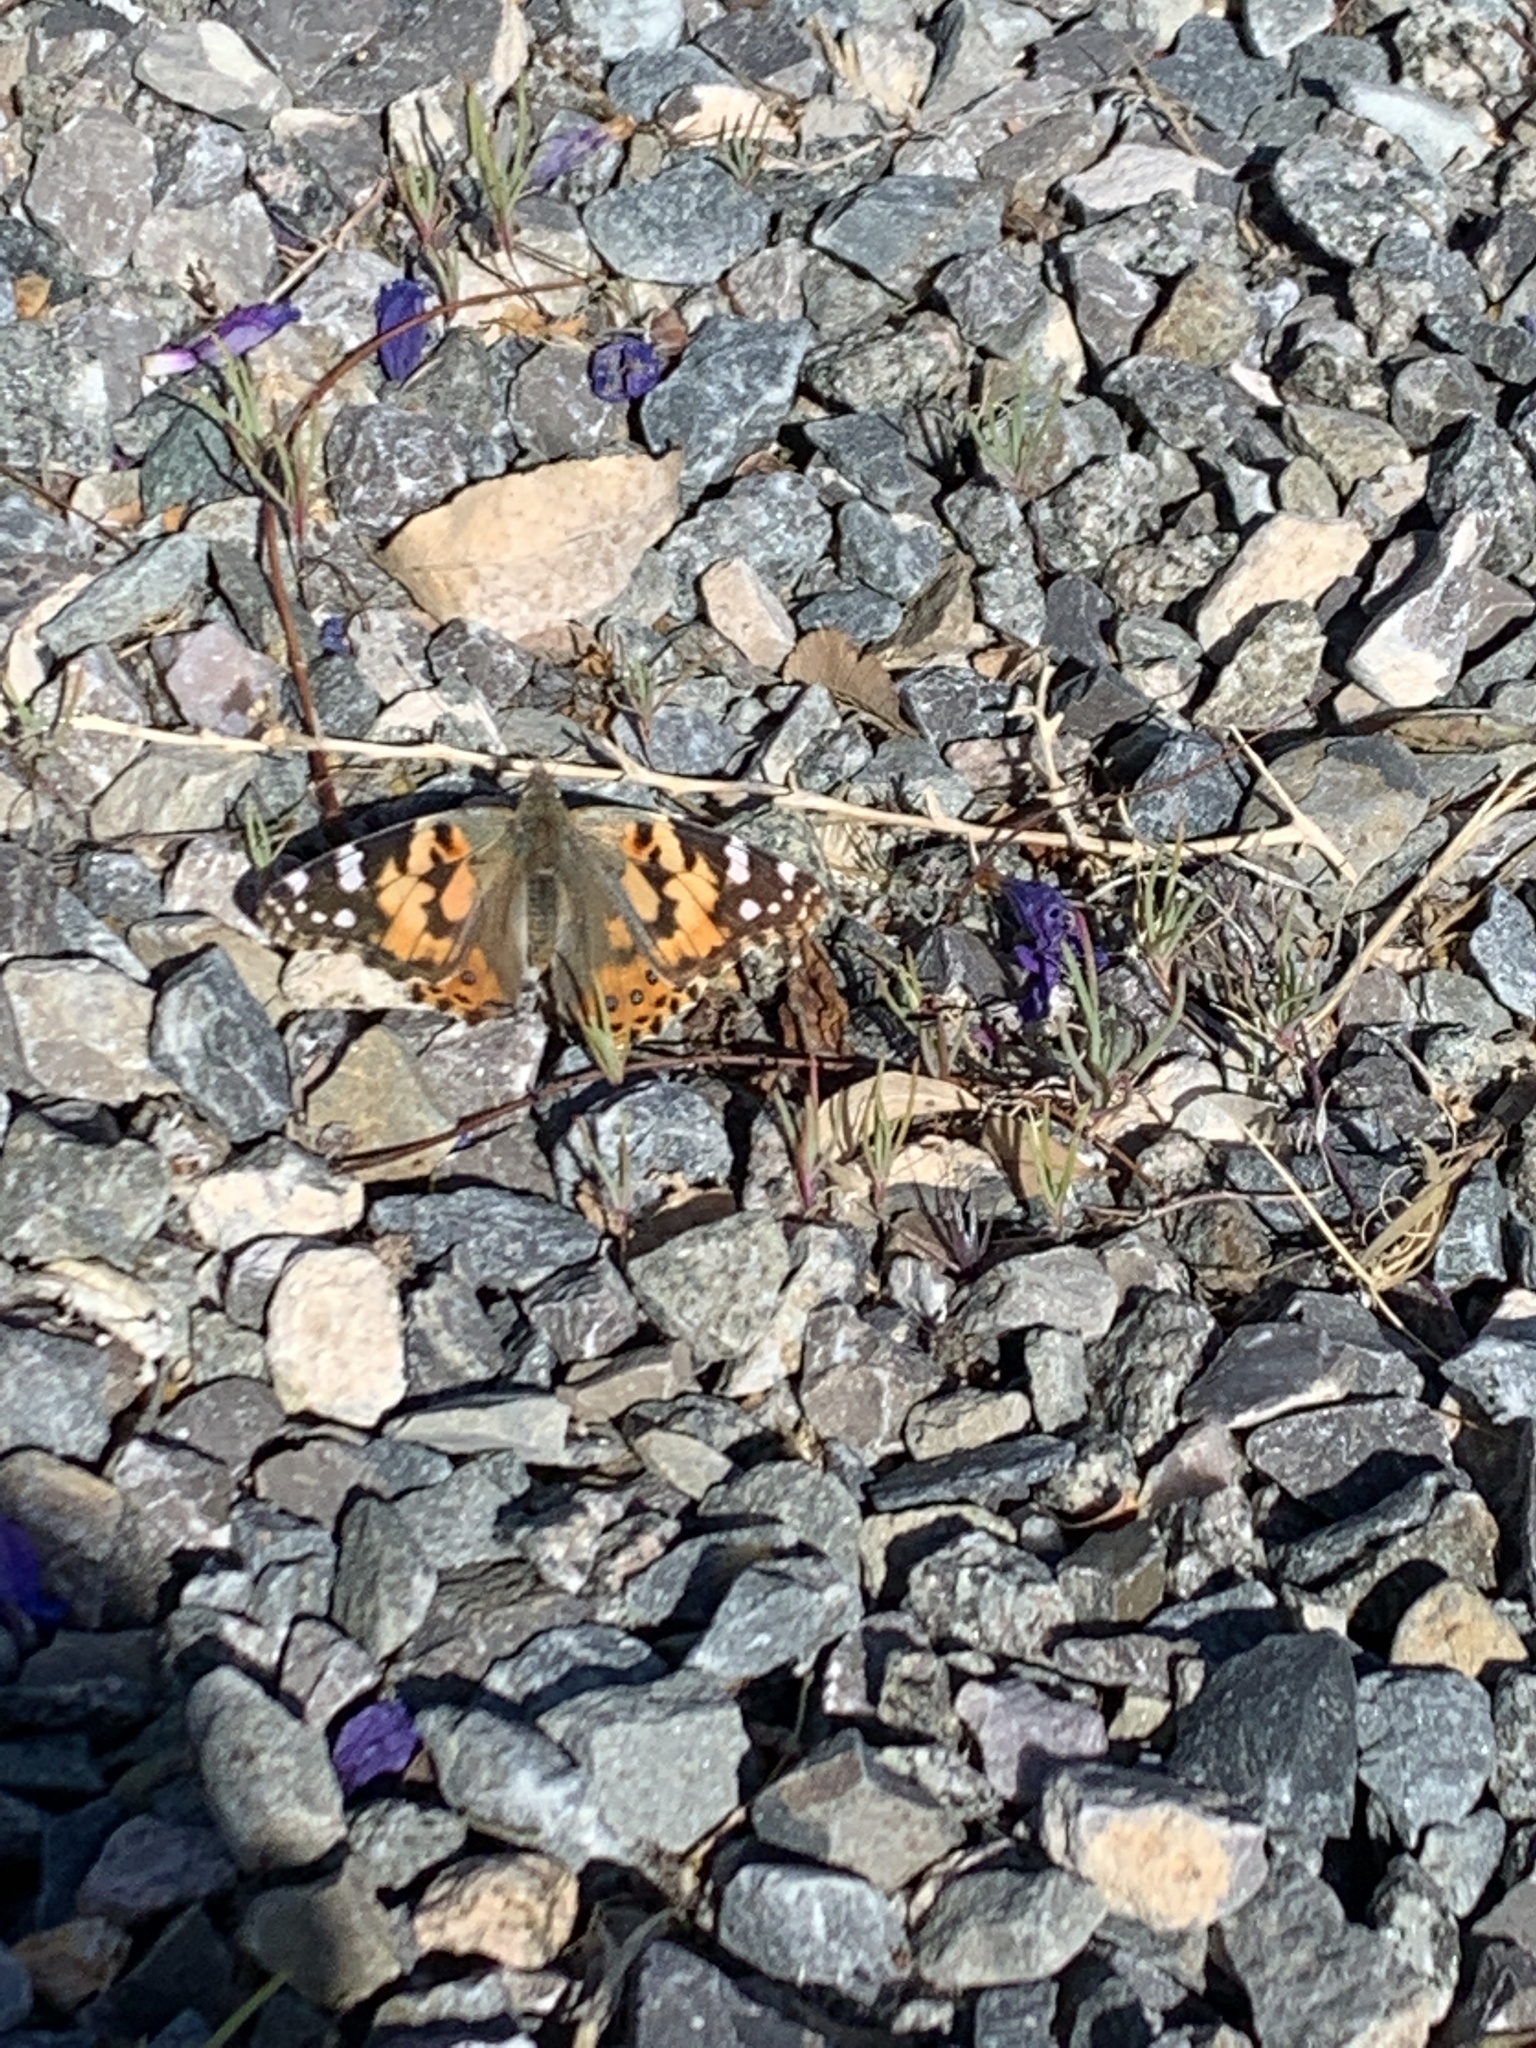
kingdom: Animalia
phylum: Arthropoda
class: Insecta
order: Lepidoptera
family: Nymphalidae
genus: Vanessa
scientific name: Vanessa cardui
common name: Painted lady
